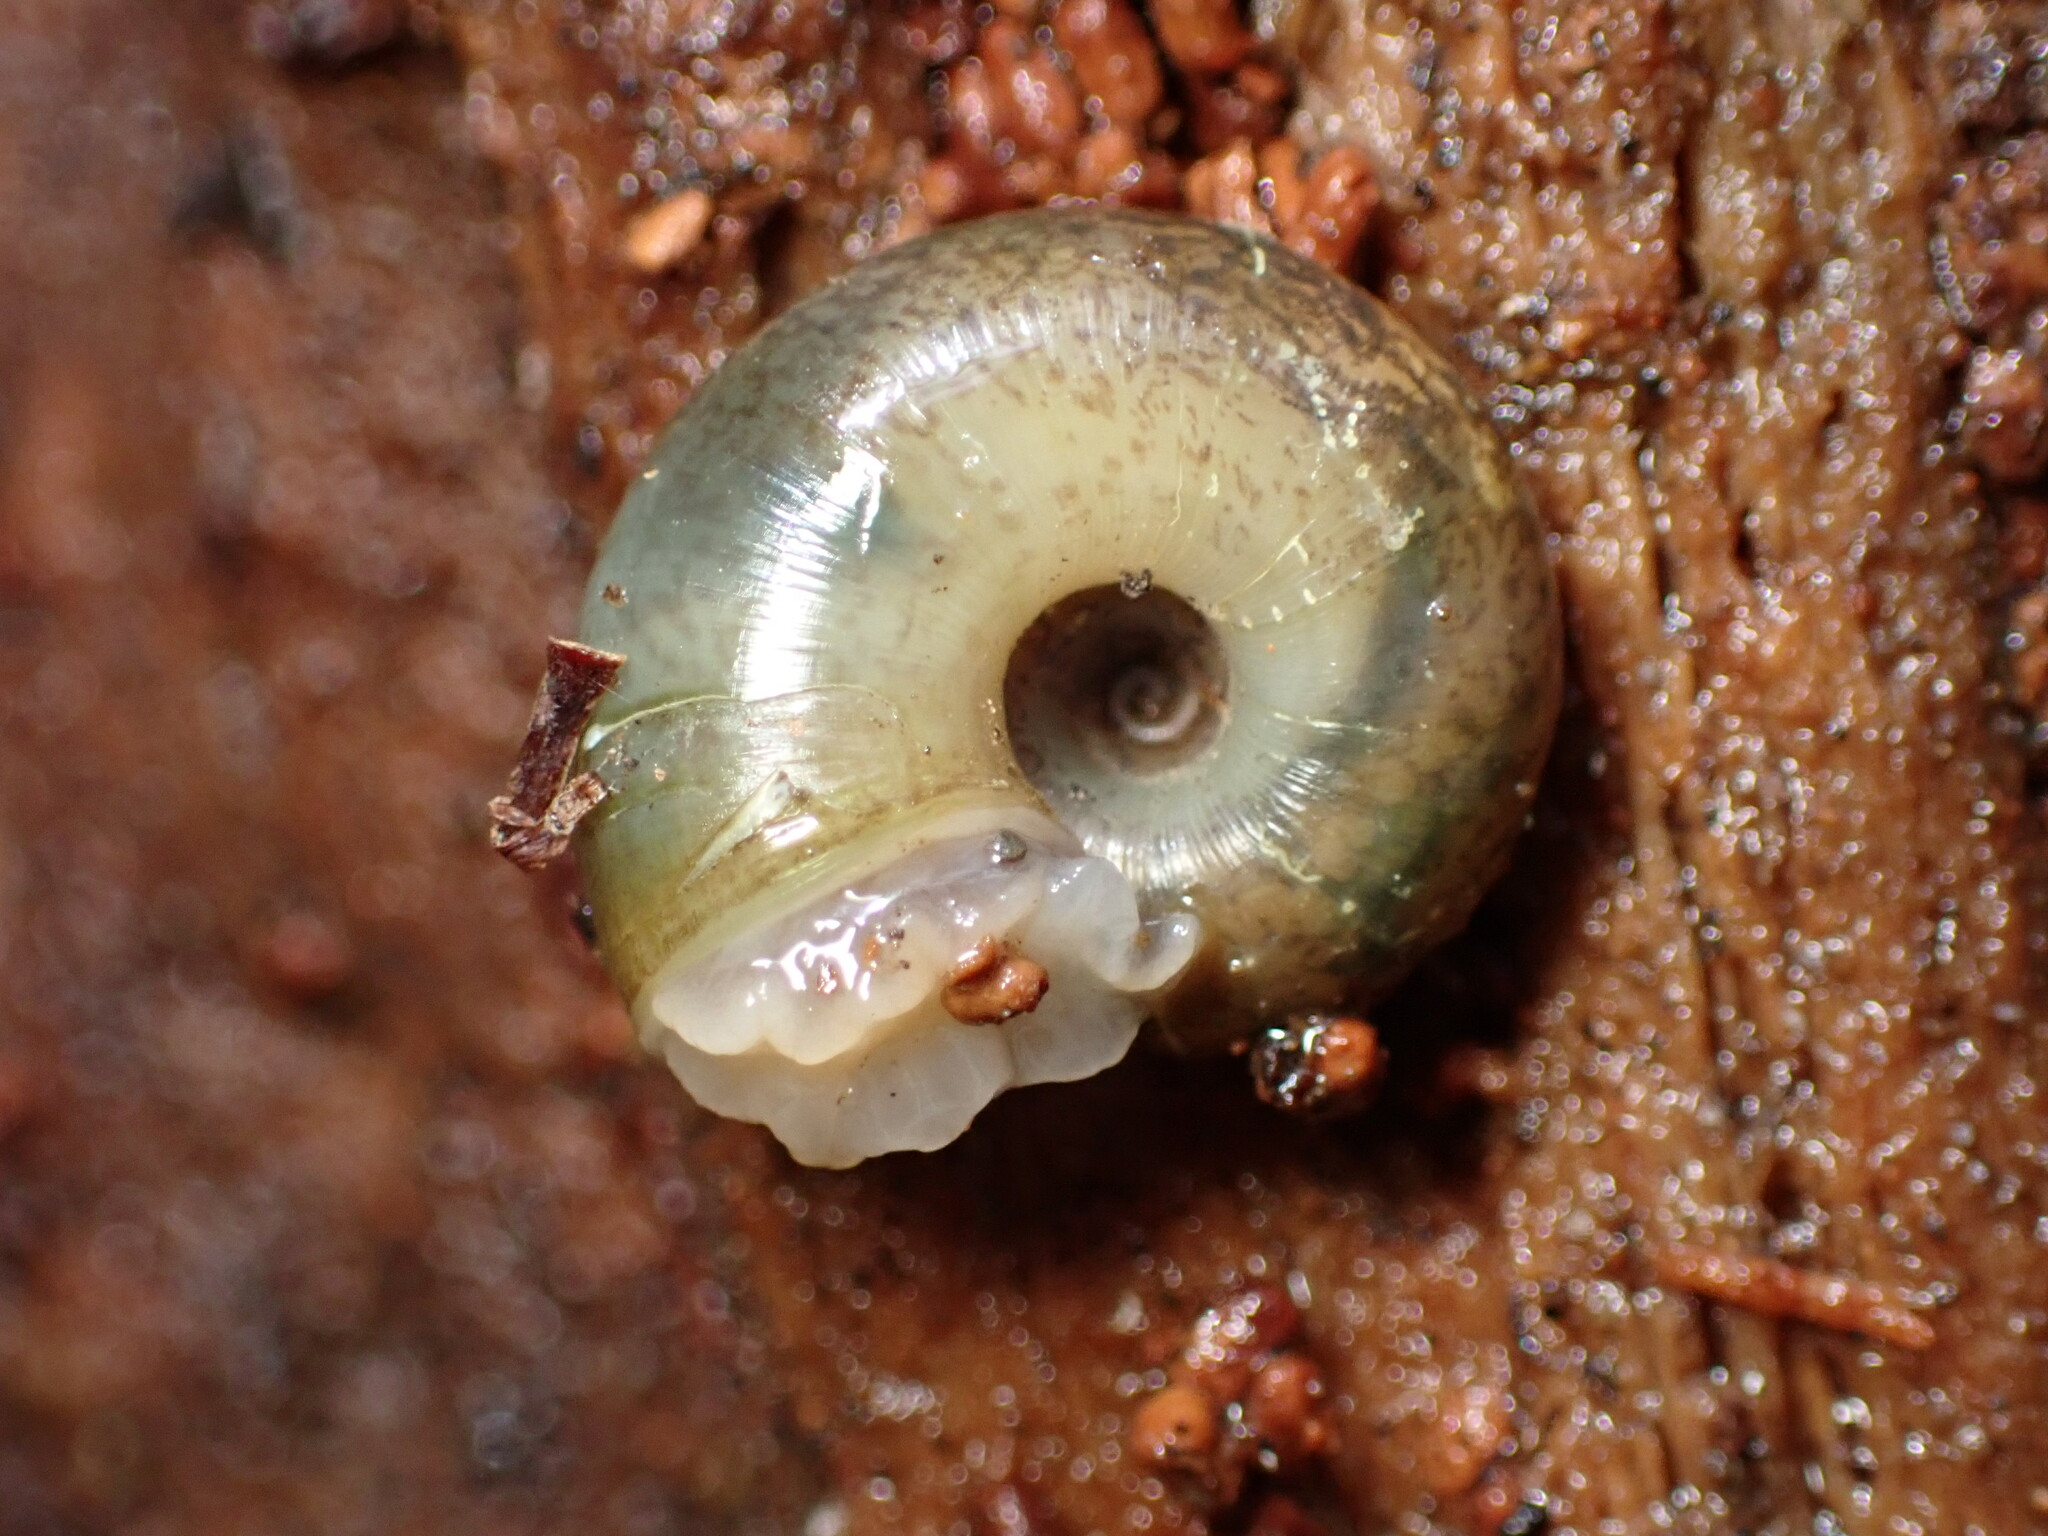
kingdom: Animalia
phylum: Mollusca
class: Gastropoda
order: Stylommatophora
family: Haplotrematidae
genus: Haplotrema
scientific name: Haplotrema minimum
